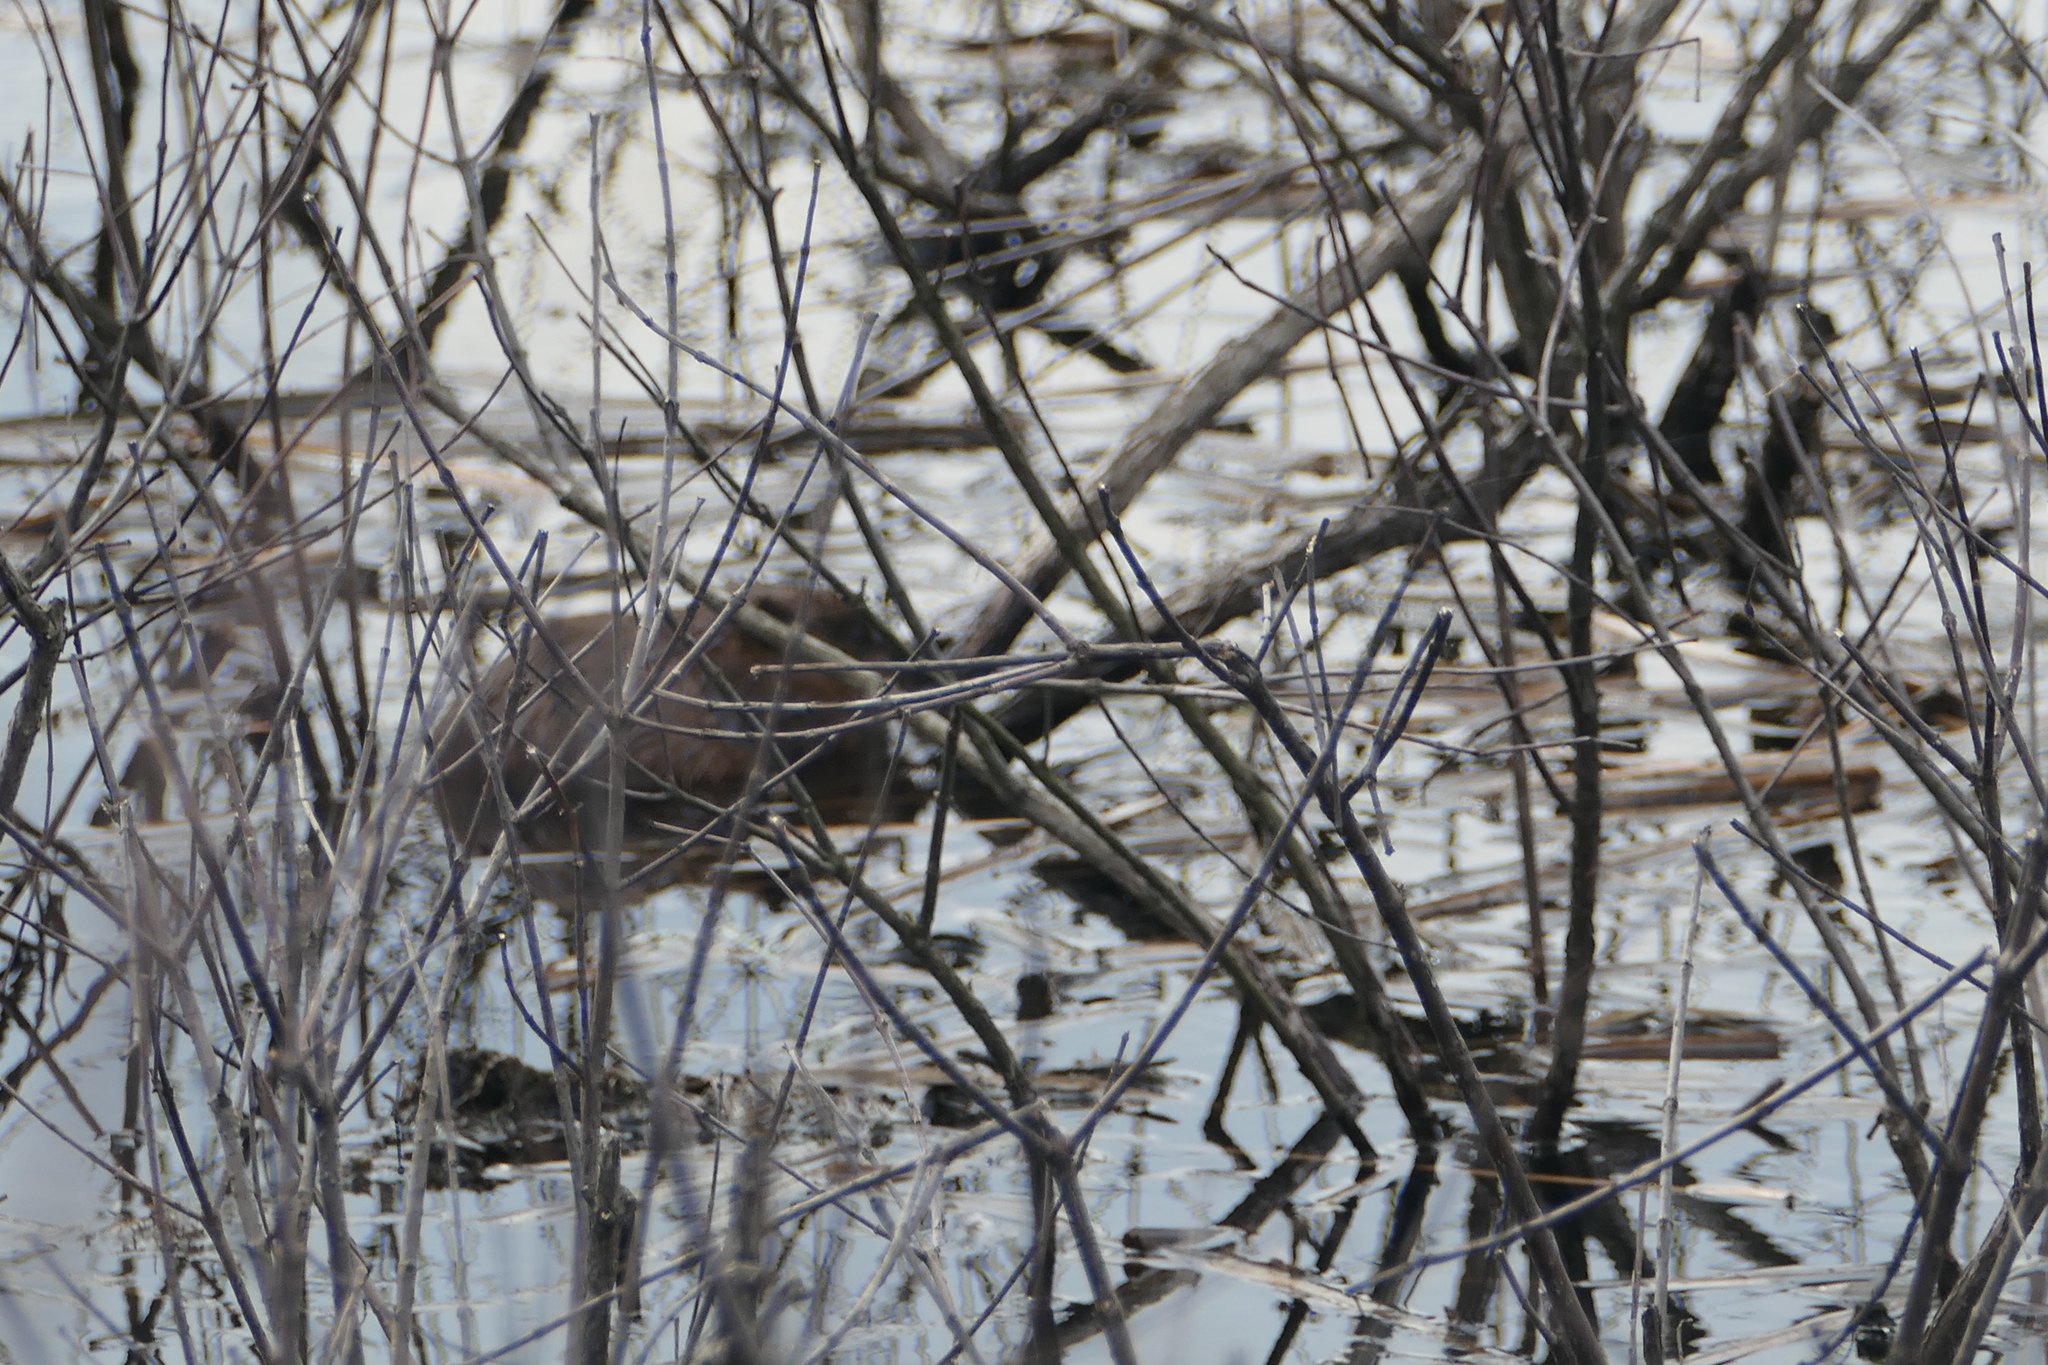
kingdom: Animalia
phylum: Chordata
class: Mammalia
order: Rodentia
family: Cricetidae
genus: Ondatra
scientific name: Ondatra zibethicus
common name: Muskrat
